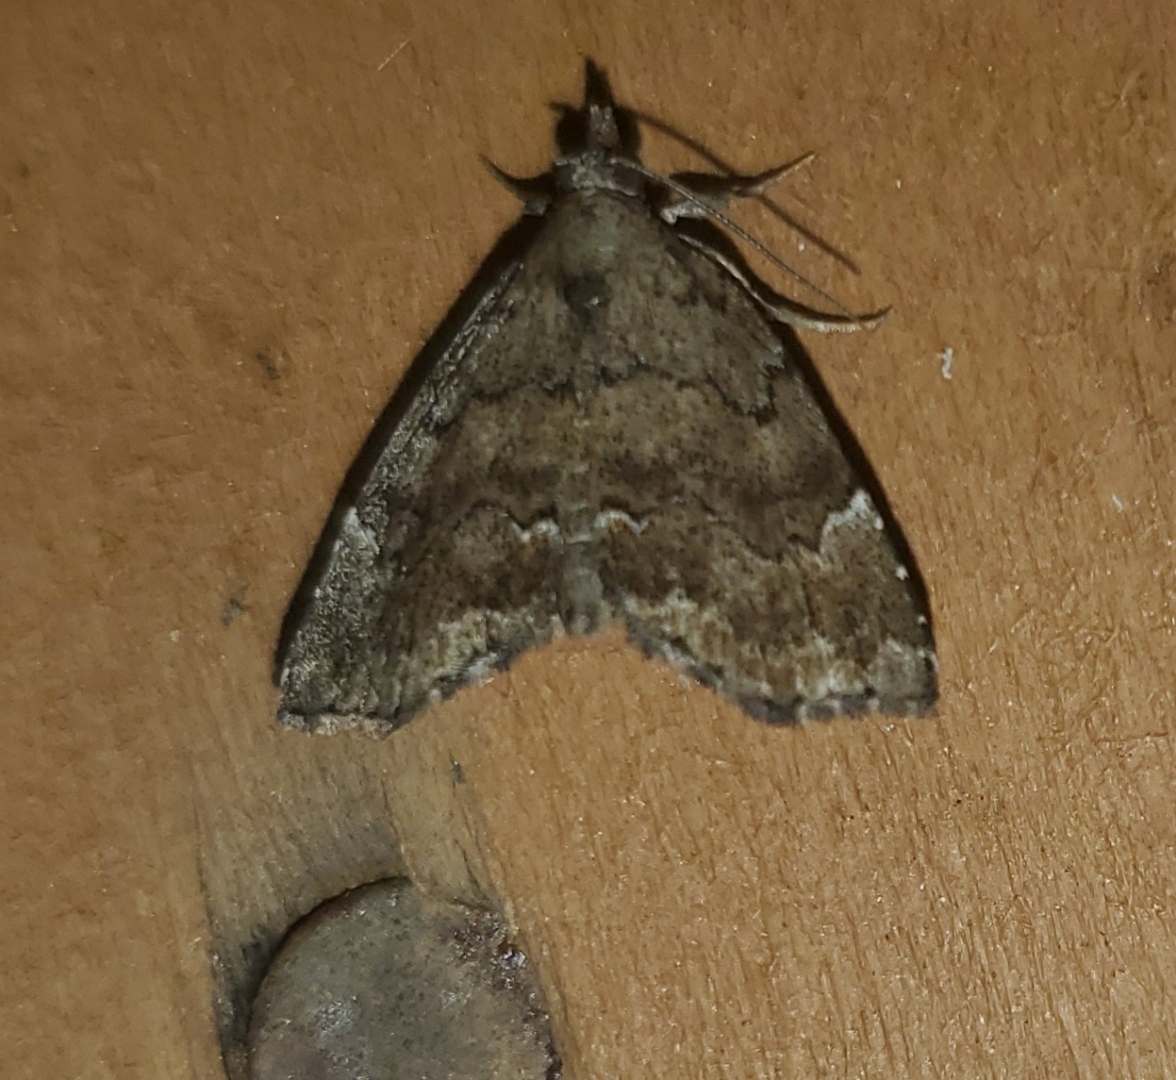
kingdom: Animalia
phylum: Arthropoda
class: Insecta
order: Lepidoptera
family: Erebidae
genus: Cutina
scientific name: Cutina aluticolor
